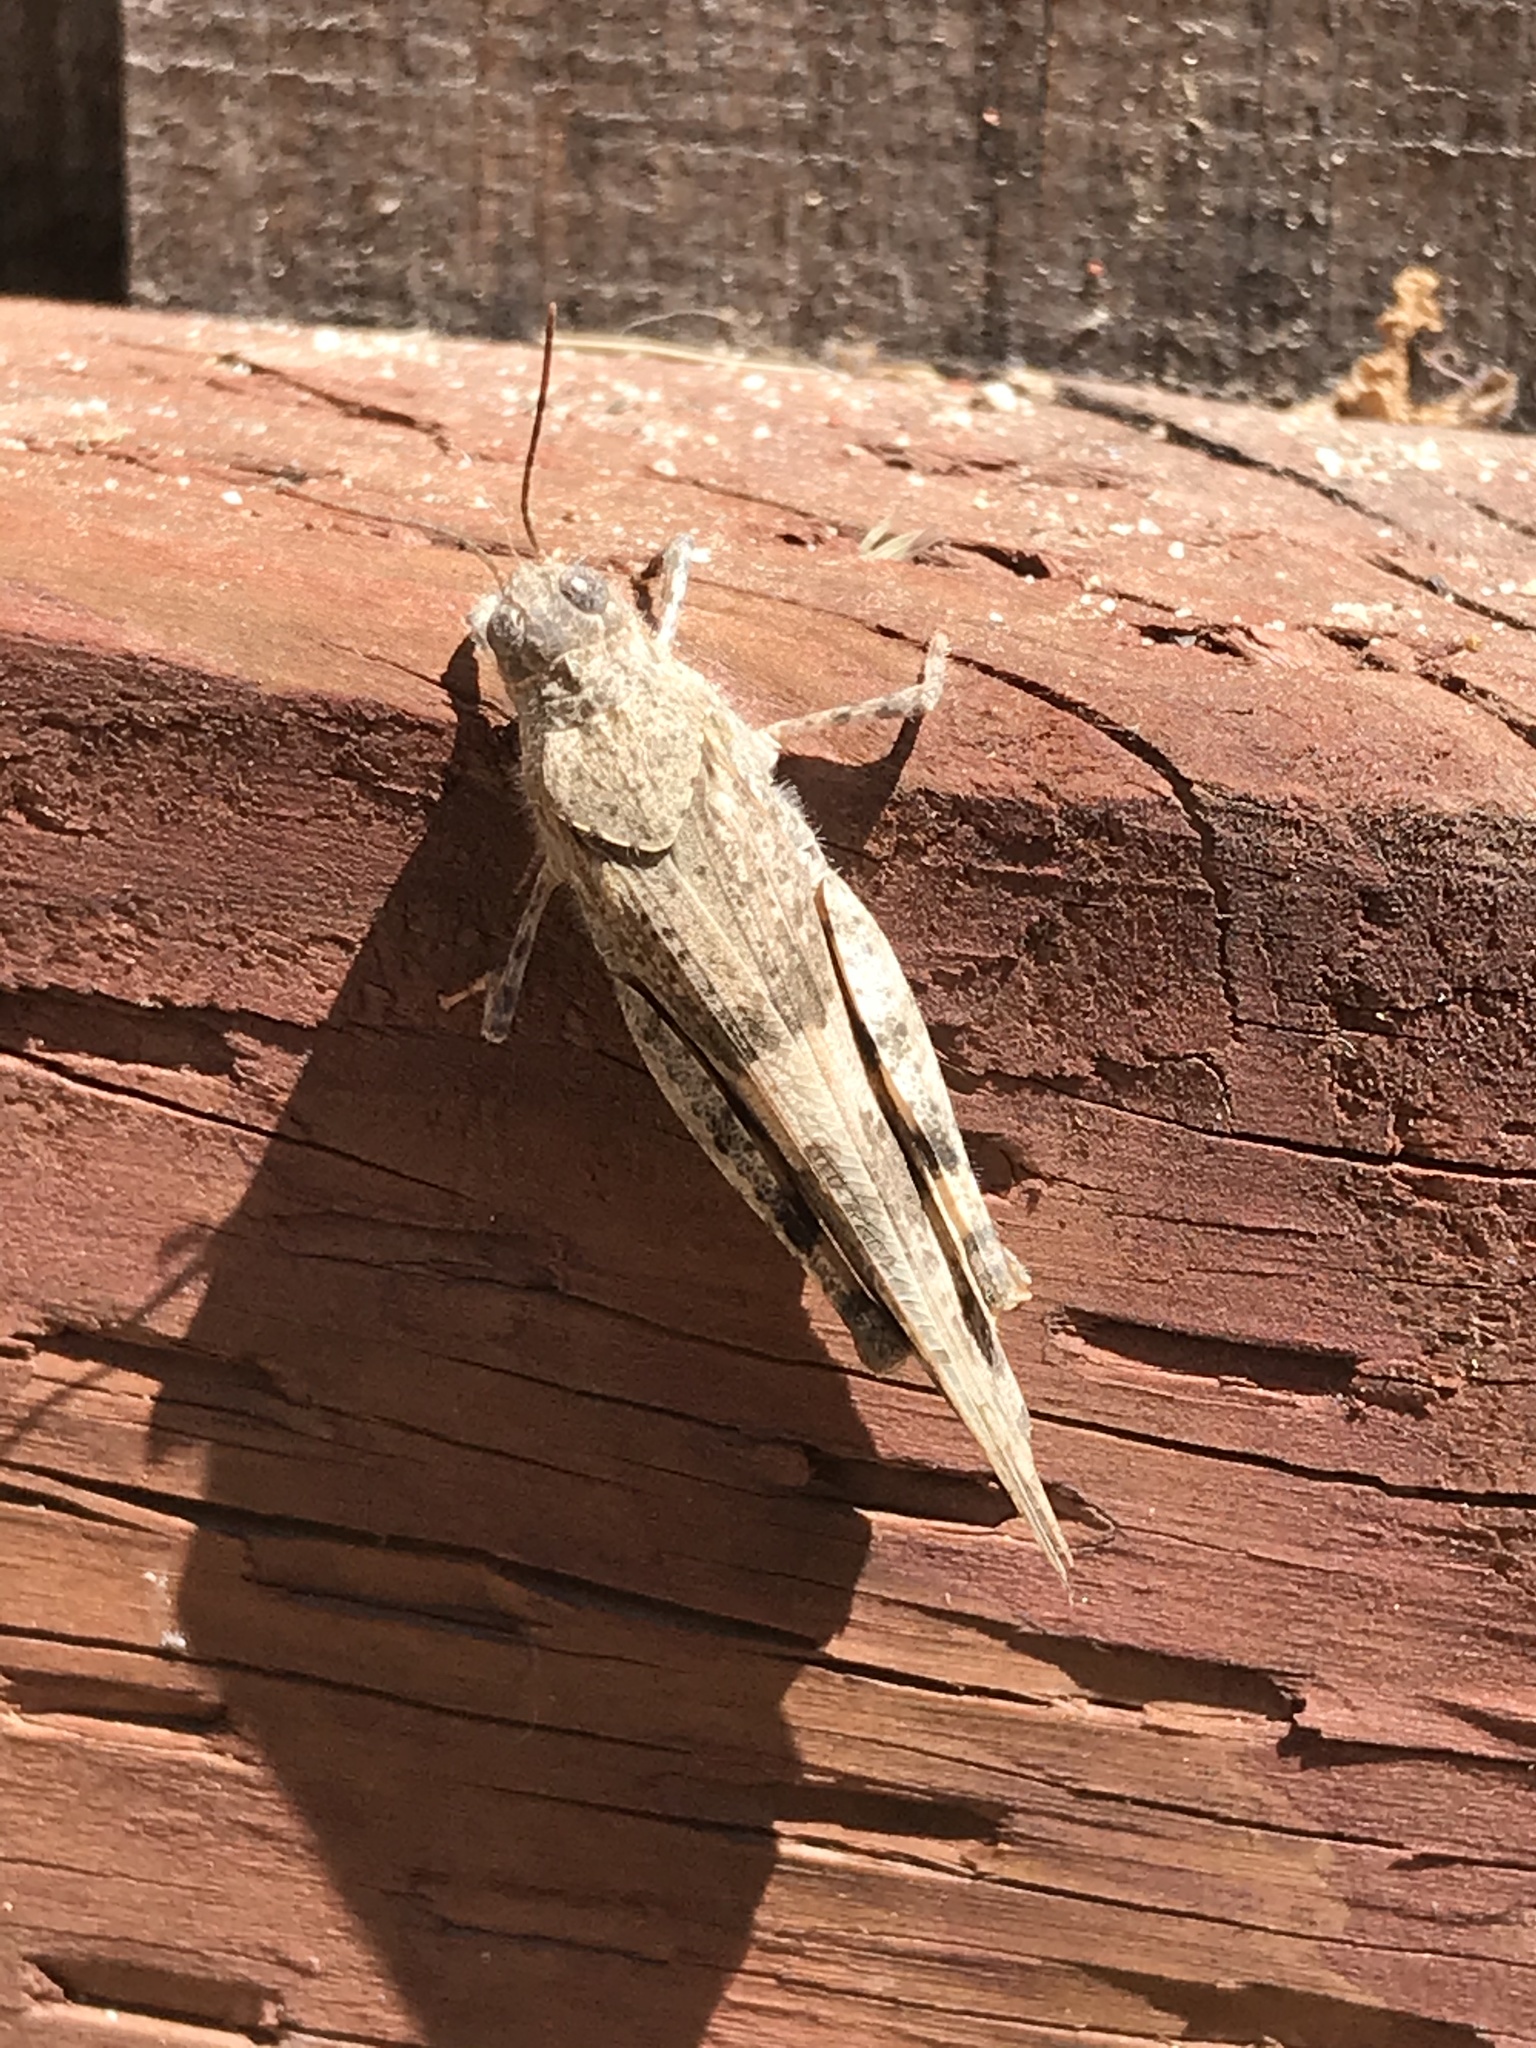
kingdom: Animalia
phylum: Arthropoda
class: Insecta
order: Orthoptera
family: Acrididae
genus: Trimerotropis
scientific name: Trimerotropis pallidipennis
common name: Pallid-winged grasshopper
